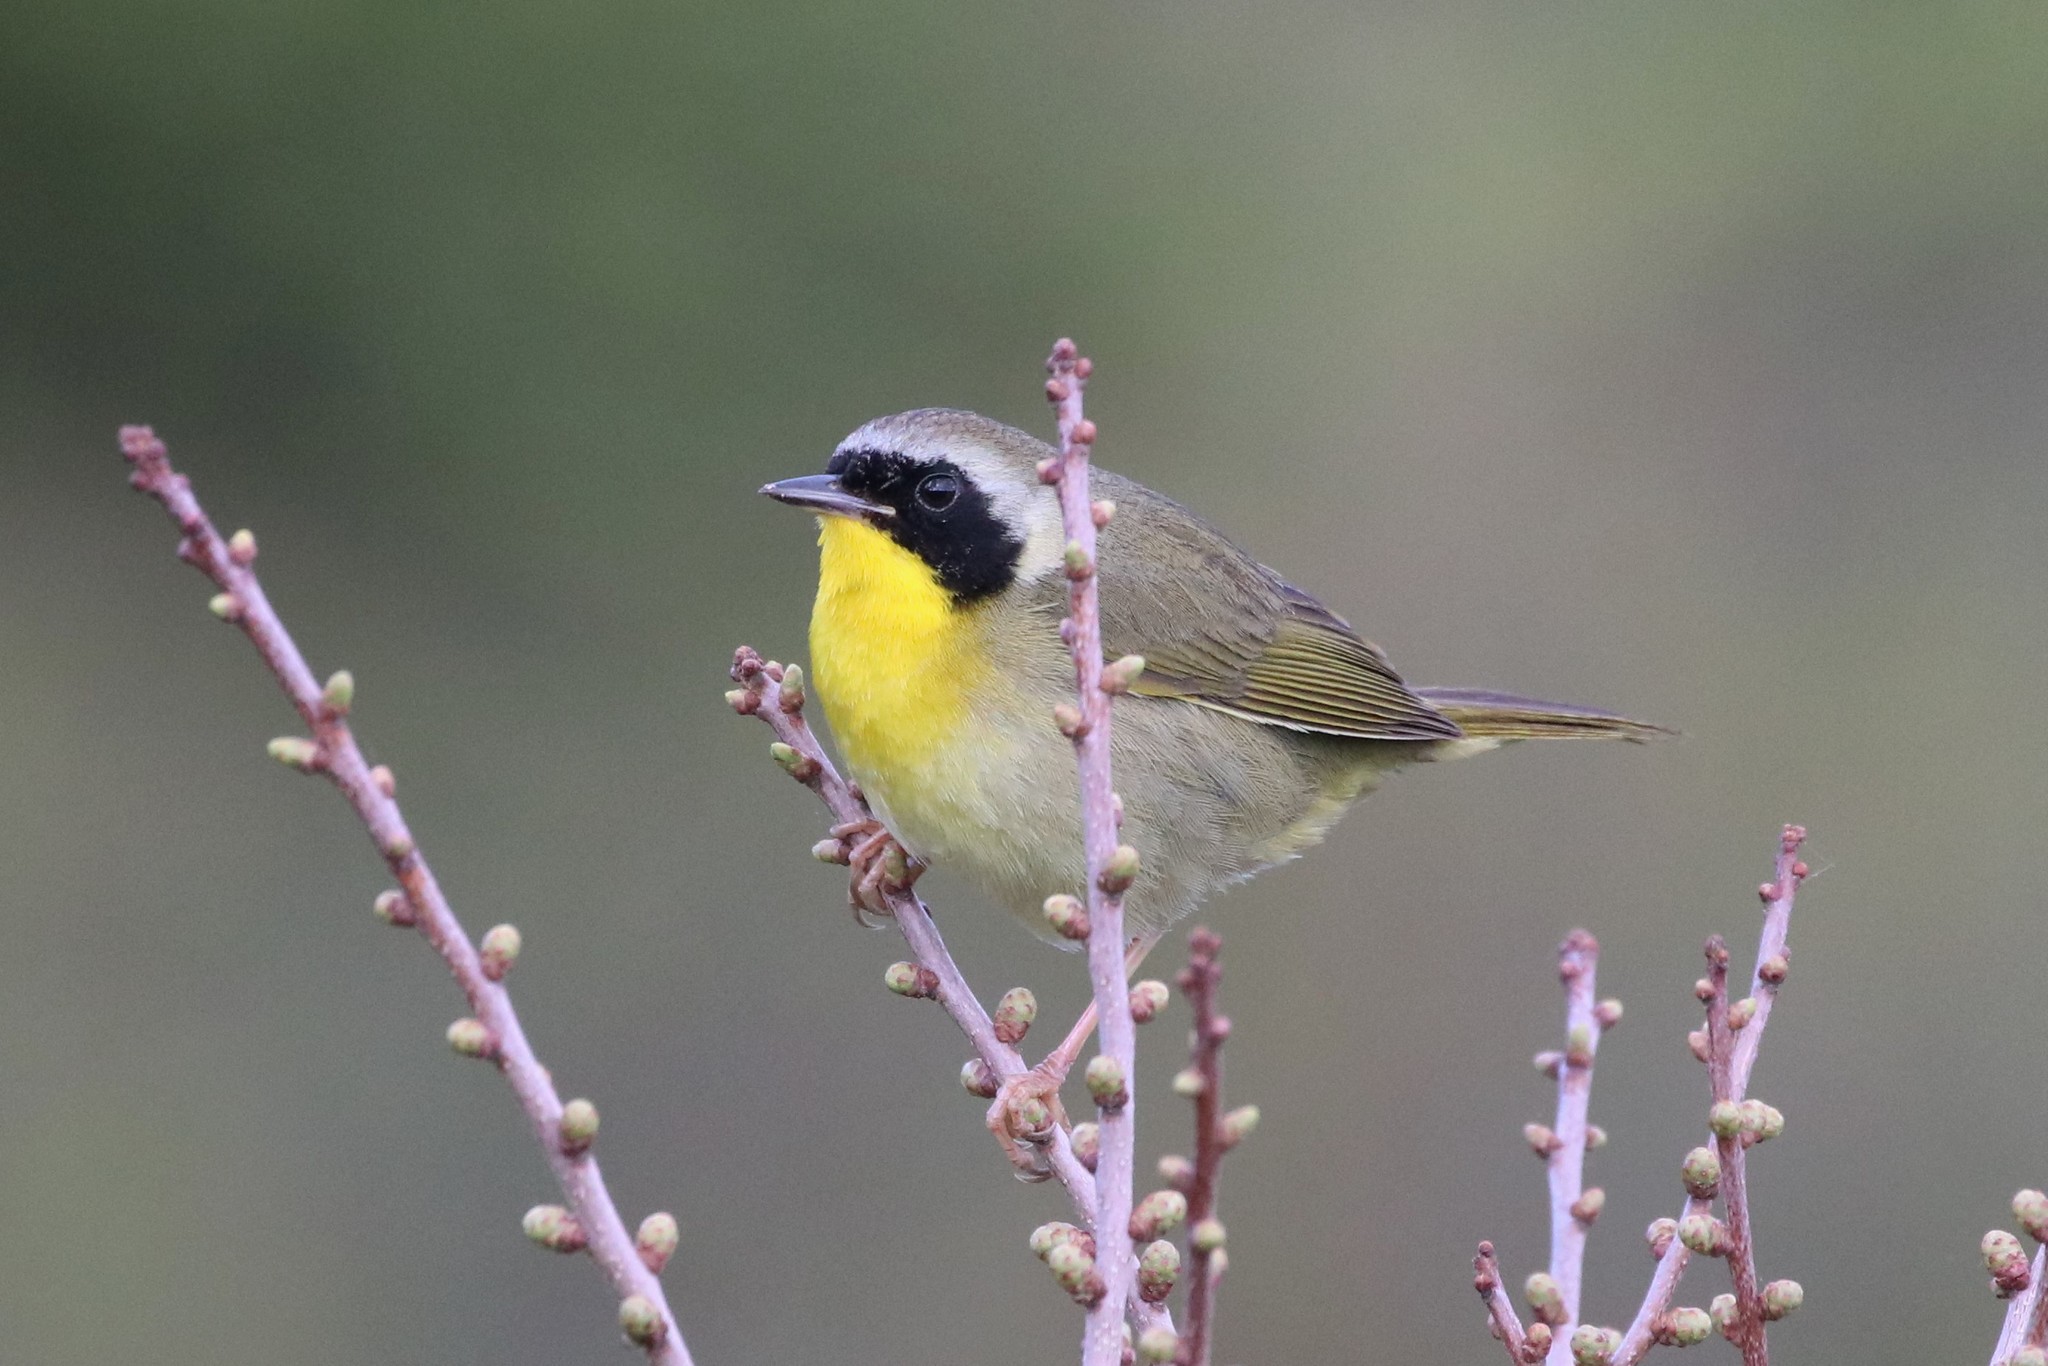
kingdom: Animalia
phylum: Chordata
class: Aves
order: Passeriformes
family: Parulidae
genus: Geothlypis
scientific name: Geothlypis trichas
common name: Common yellowthroat
